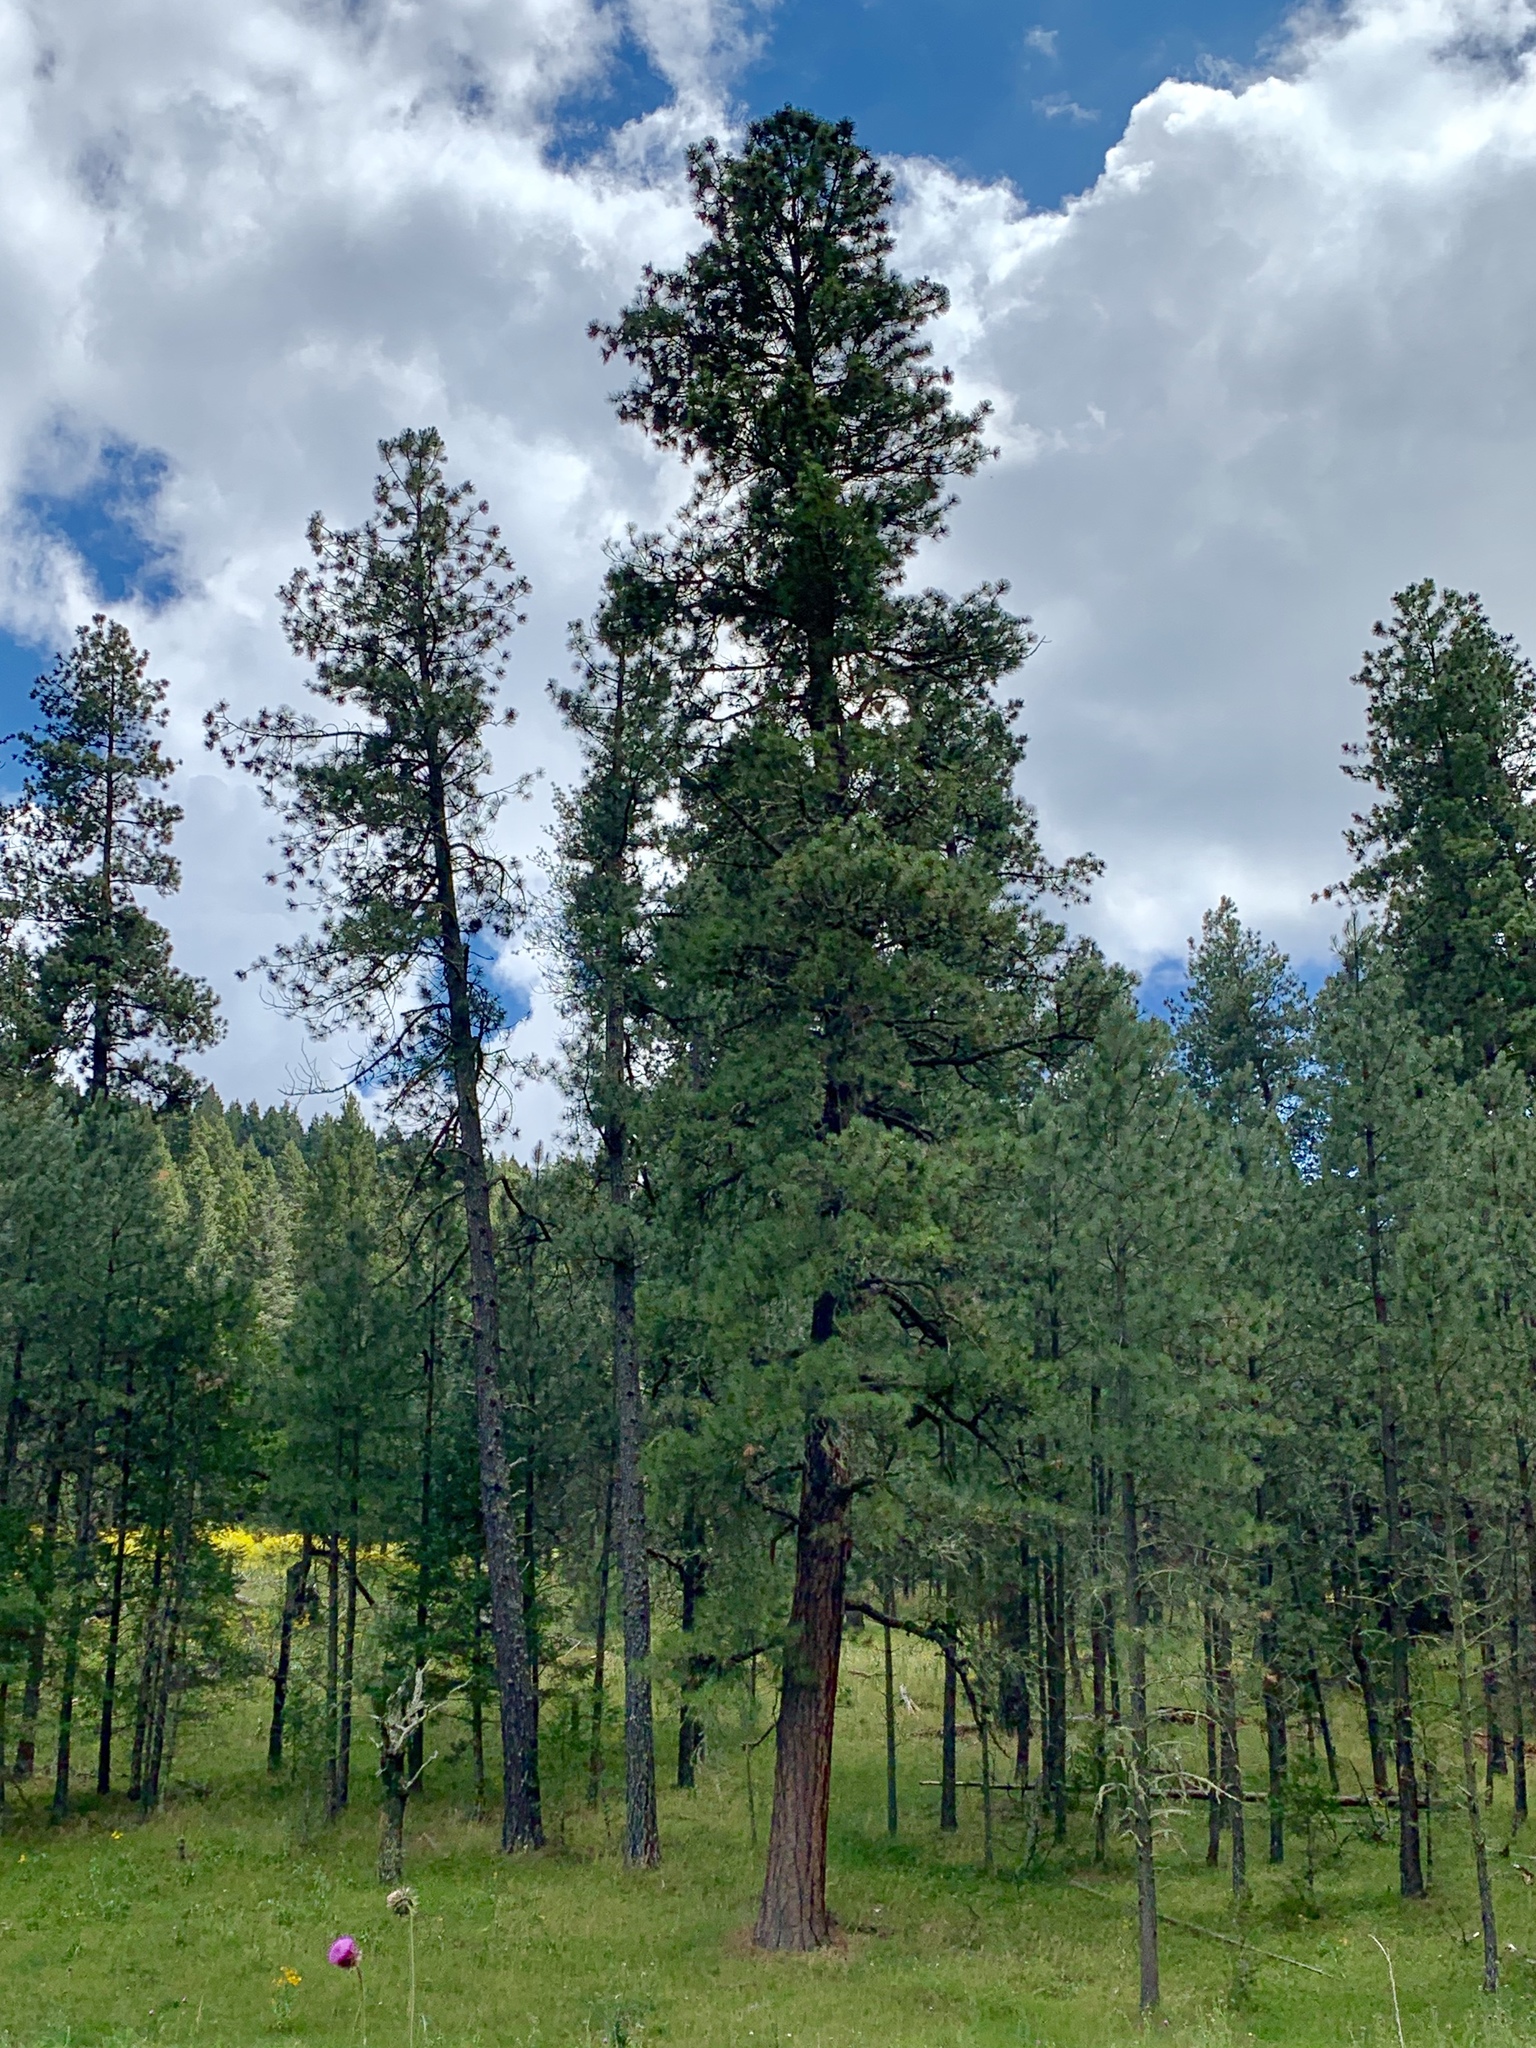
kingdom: Plantae
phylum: Tracheophyta
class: Pinopsida
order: Pinales
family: Pinaceae
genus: Pinus
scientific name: Pinus ponderosa
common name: Western yellow-pine
